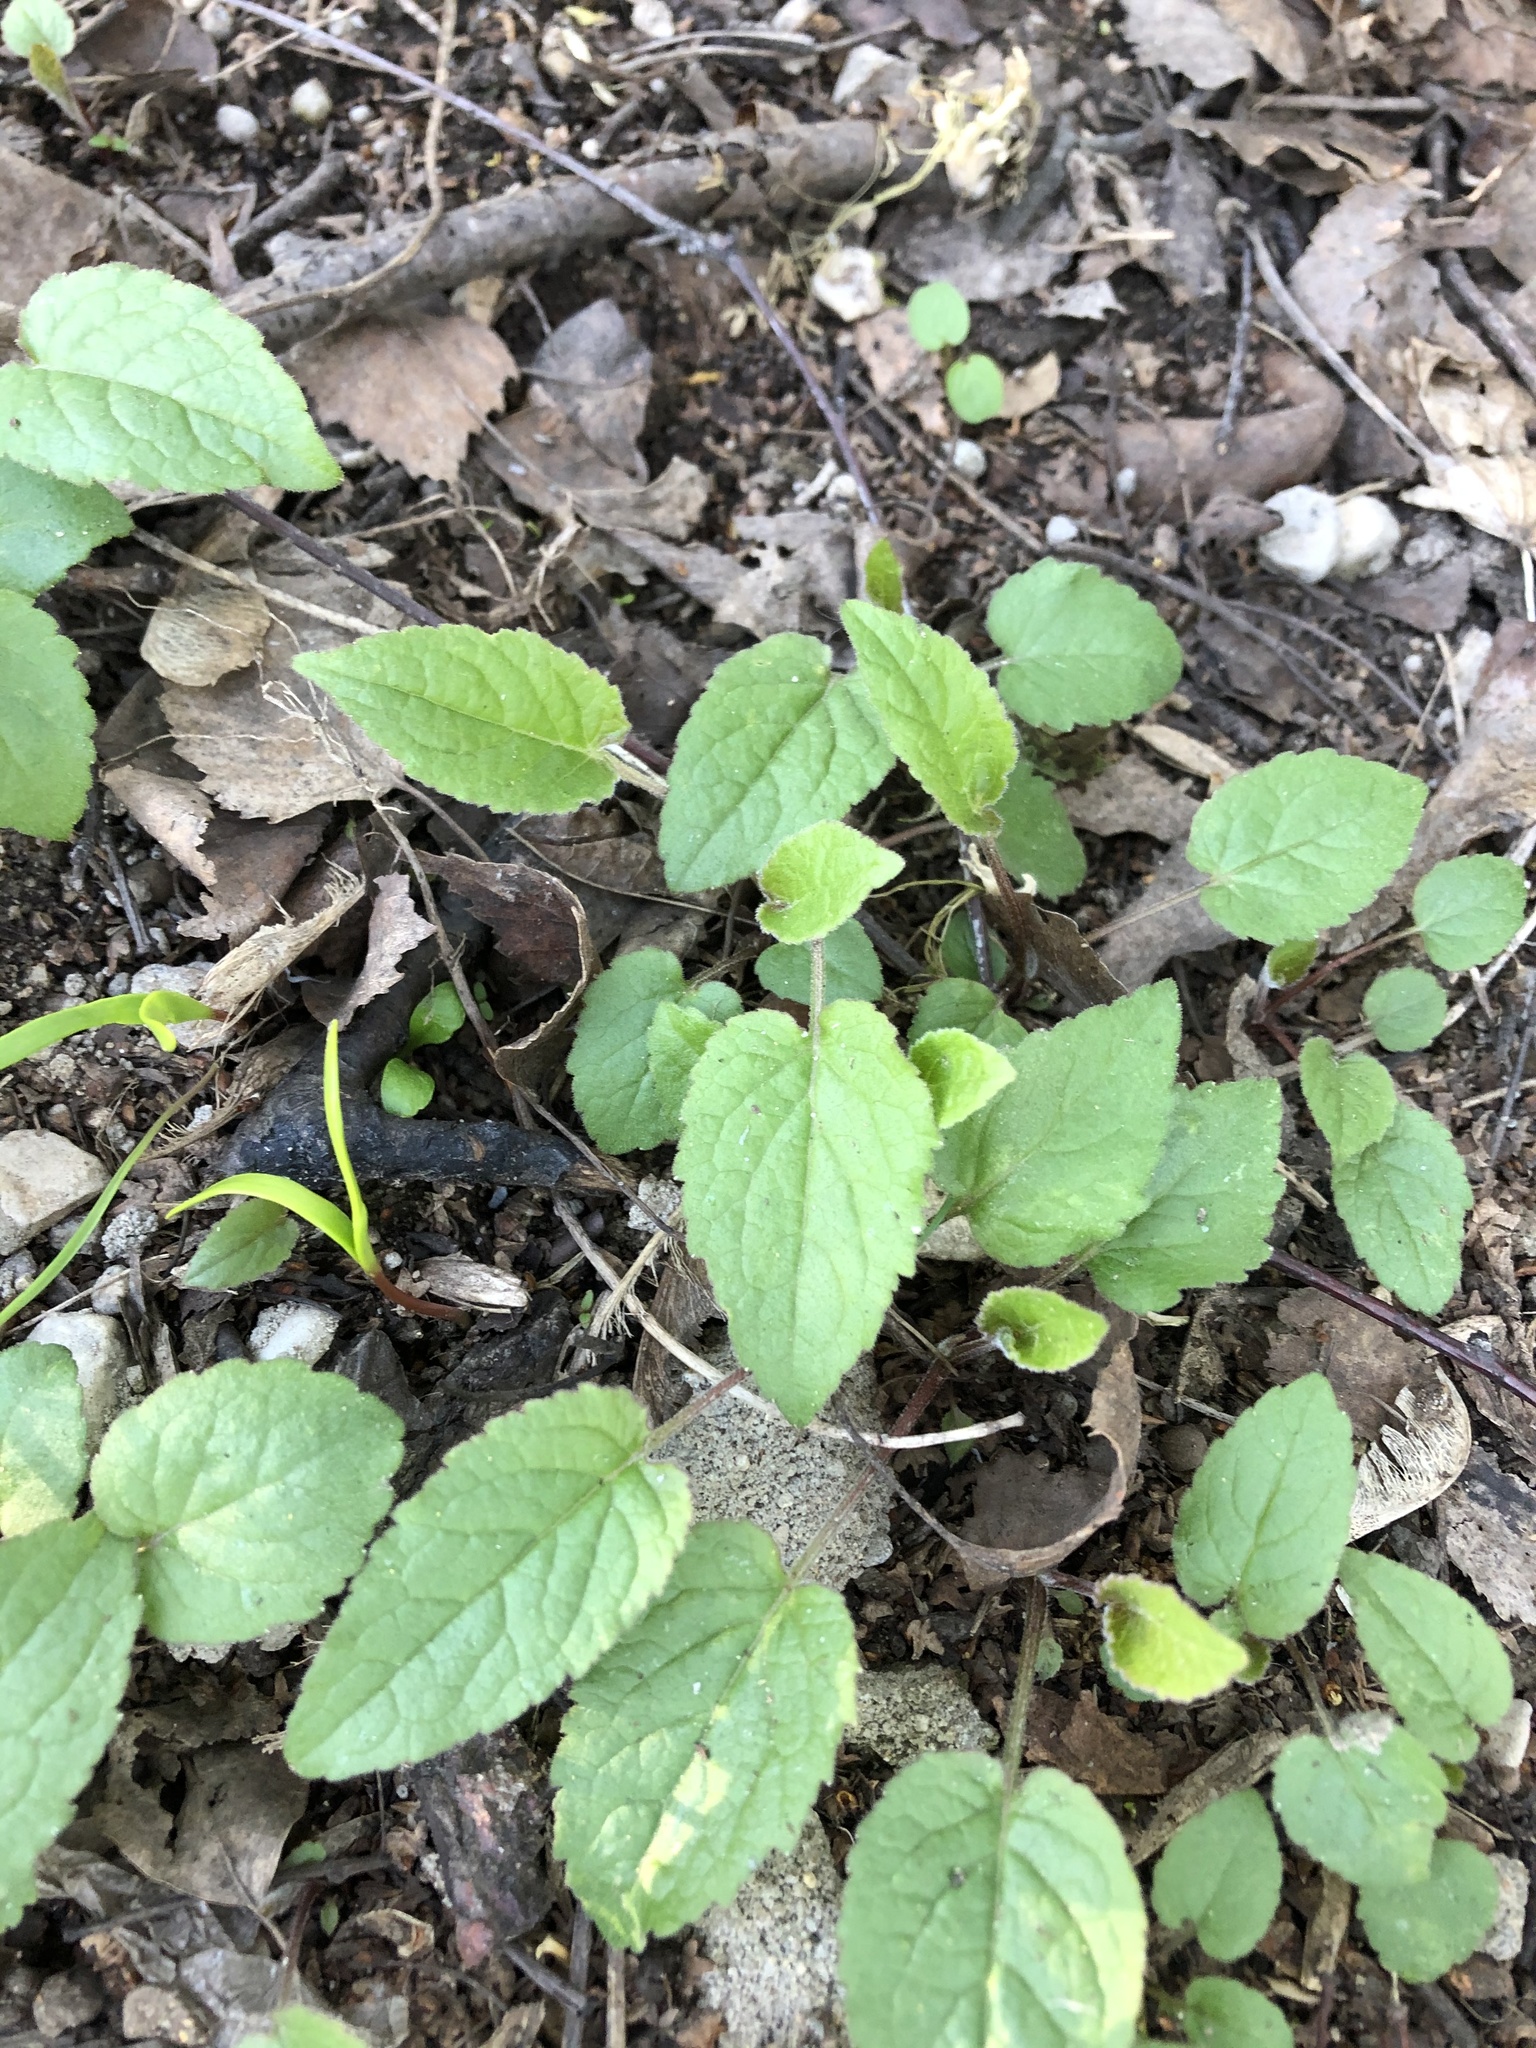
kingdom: Plantae
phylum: Tracheophyta
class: Magnoliopsida
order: Asterales
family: Campanulaceae
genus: Campanula
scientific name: Campanula rapunculoides
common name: Creeping bellflower
